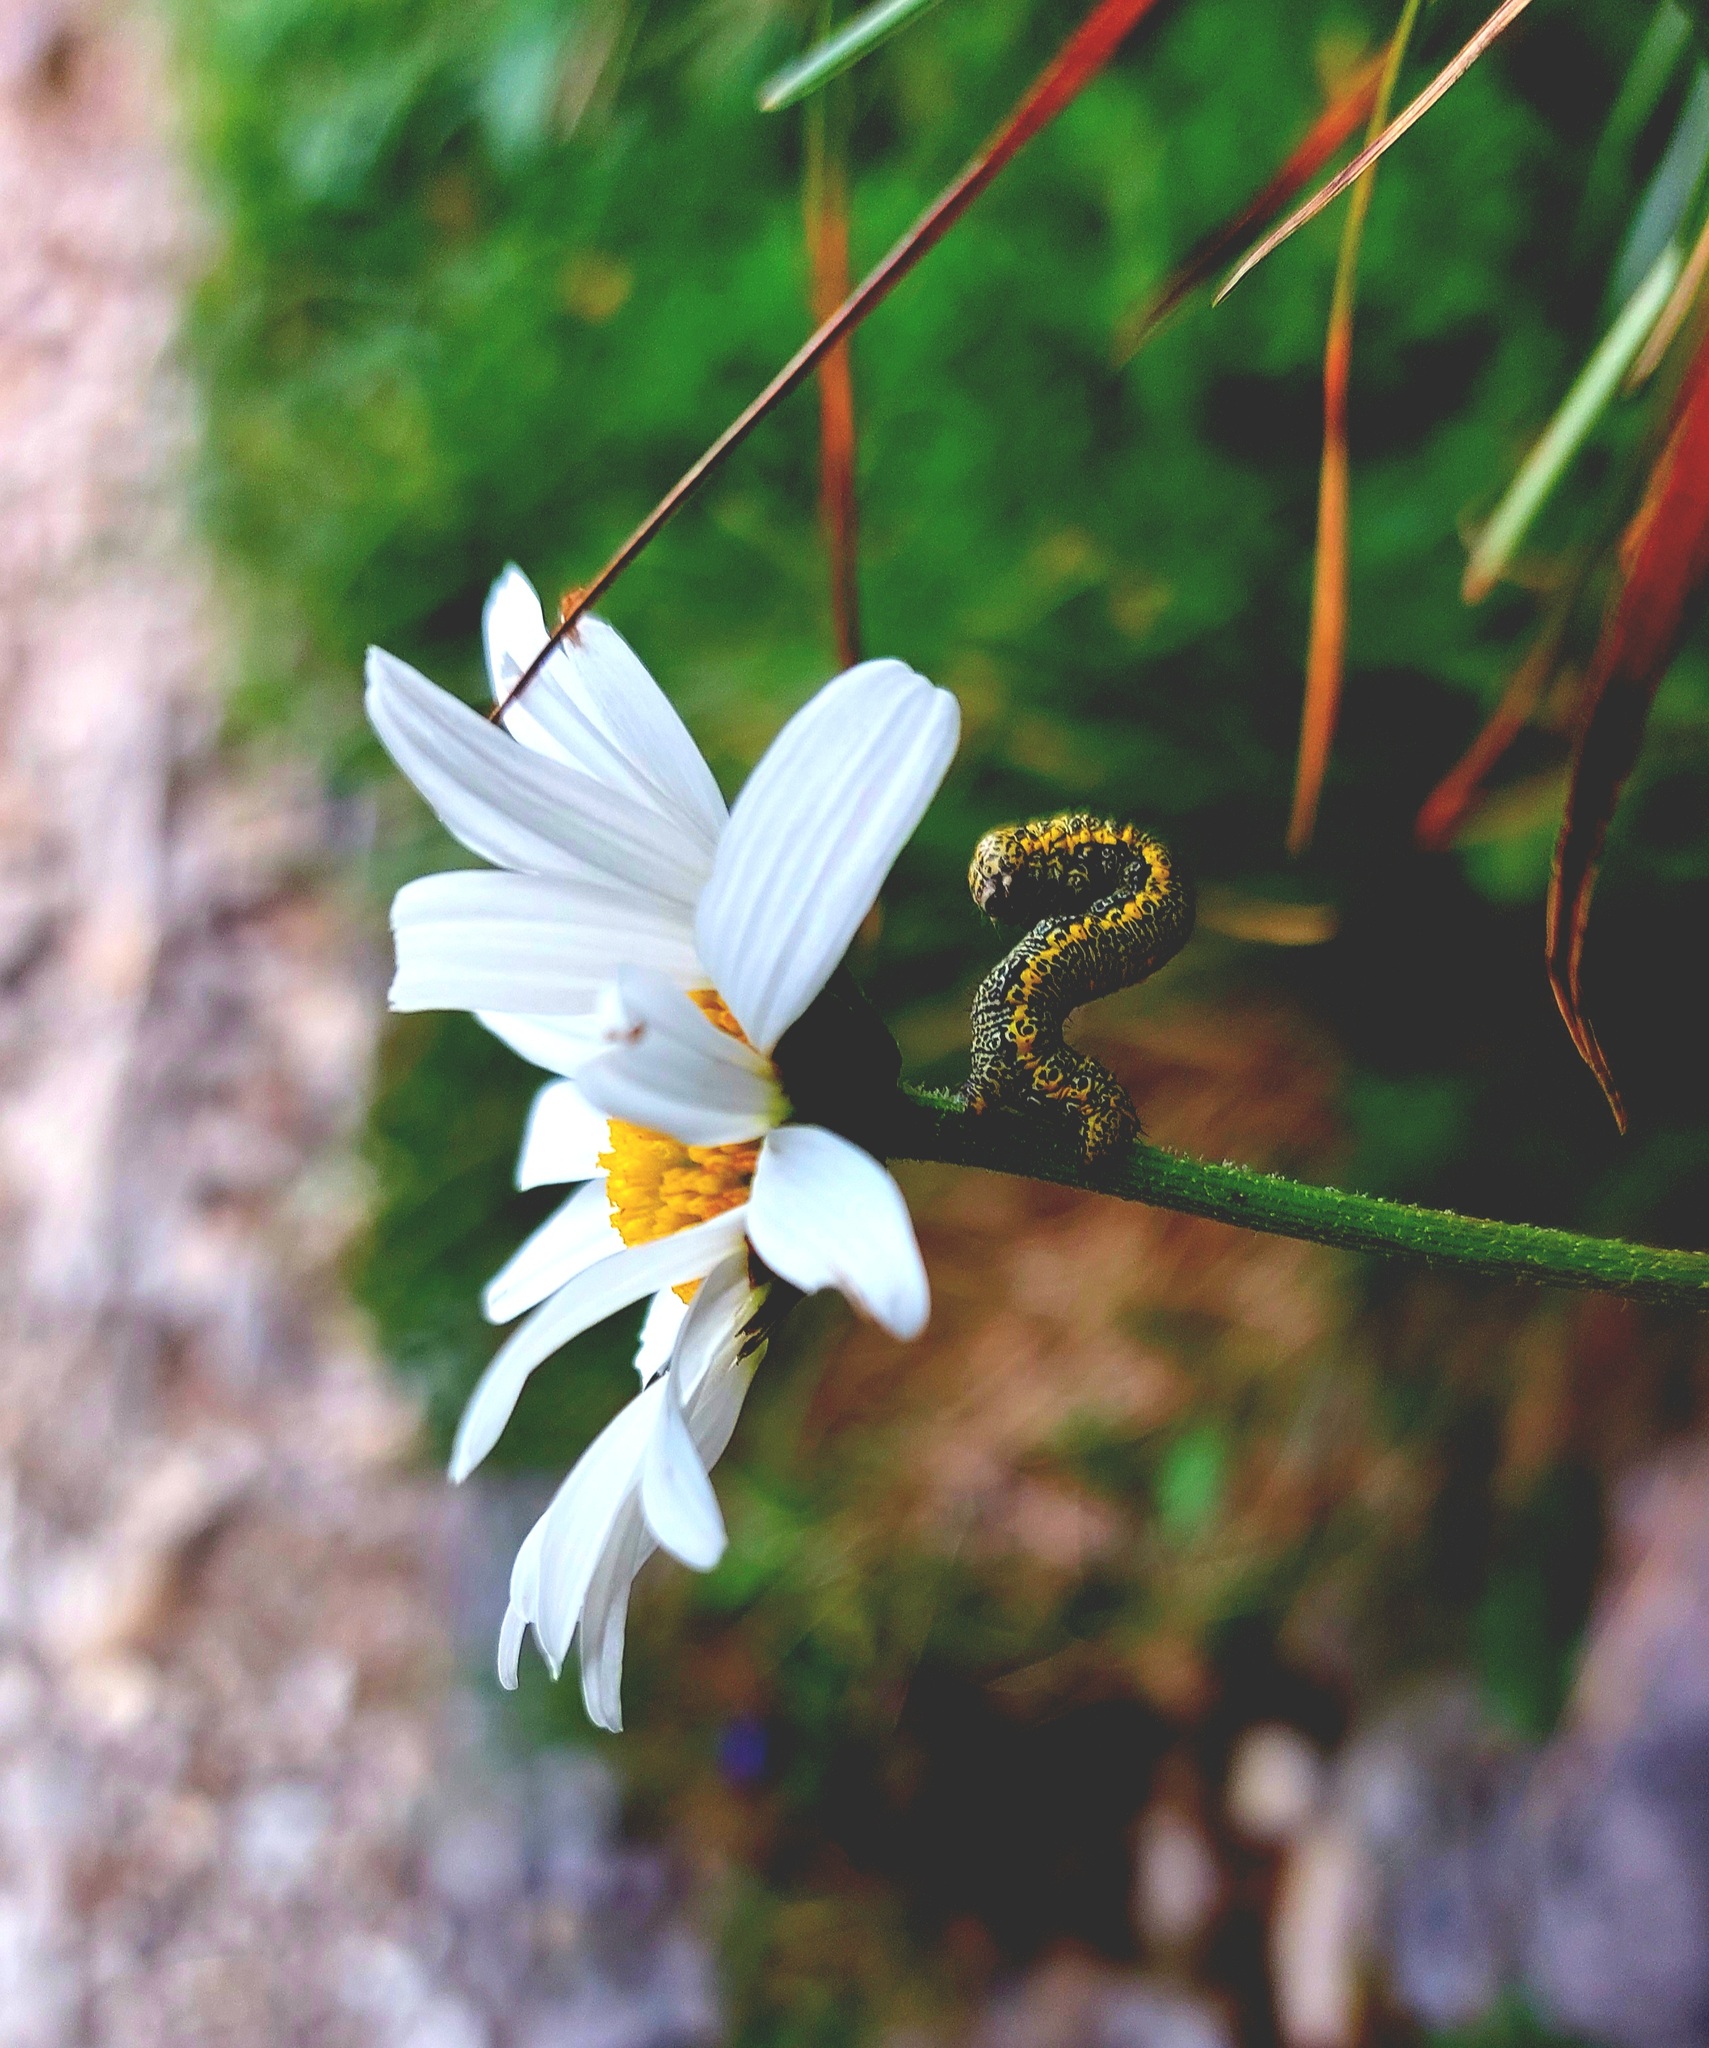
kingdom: Plantae
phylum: Tracheophyta
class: Magnoliopsida
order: Asterales
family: Asteraceae
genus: Leucanthemum
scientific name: Leucanthemum
